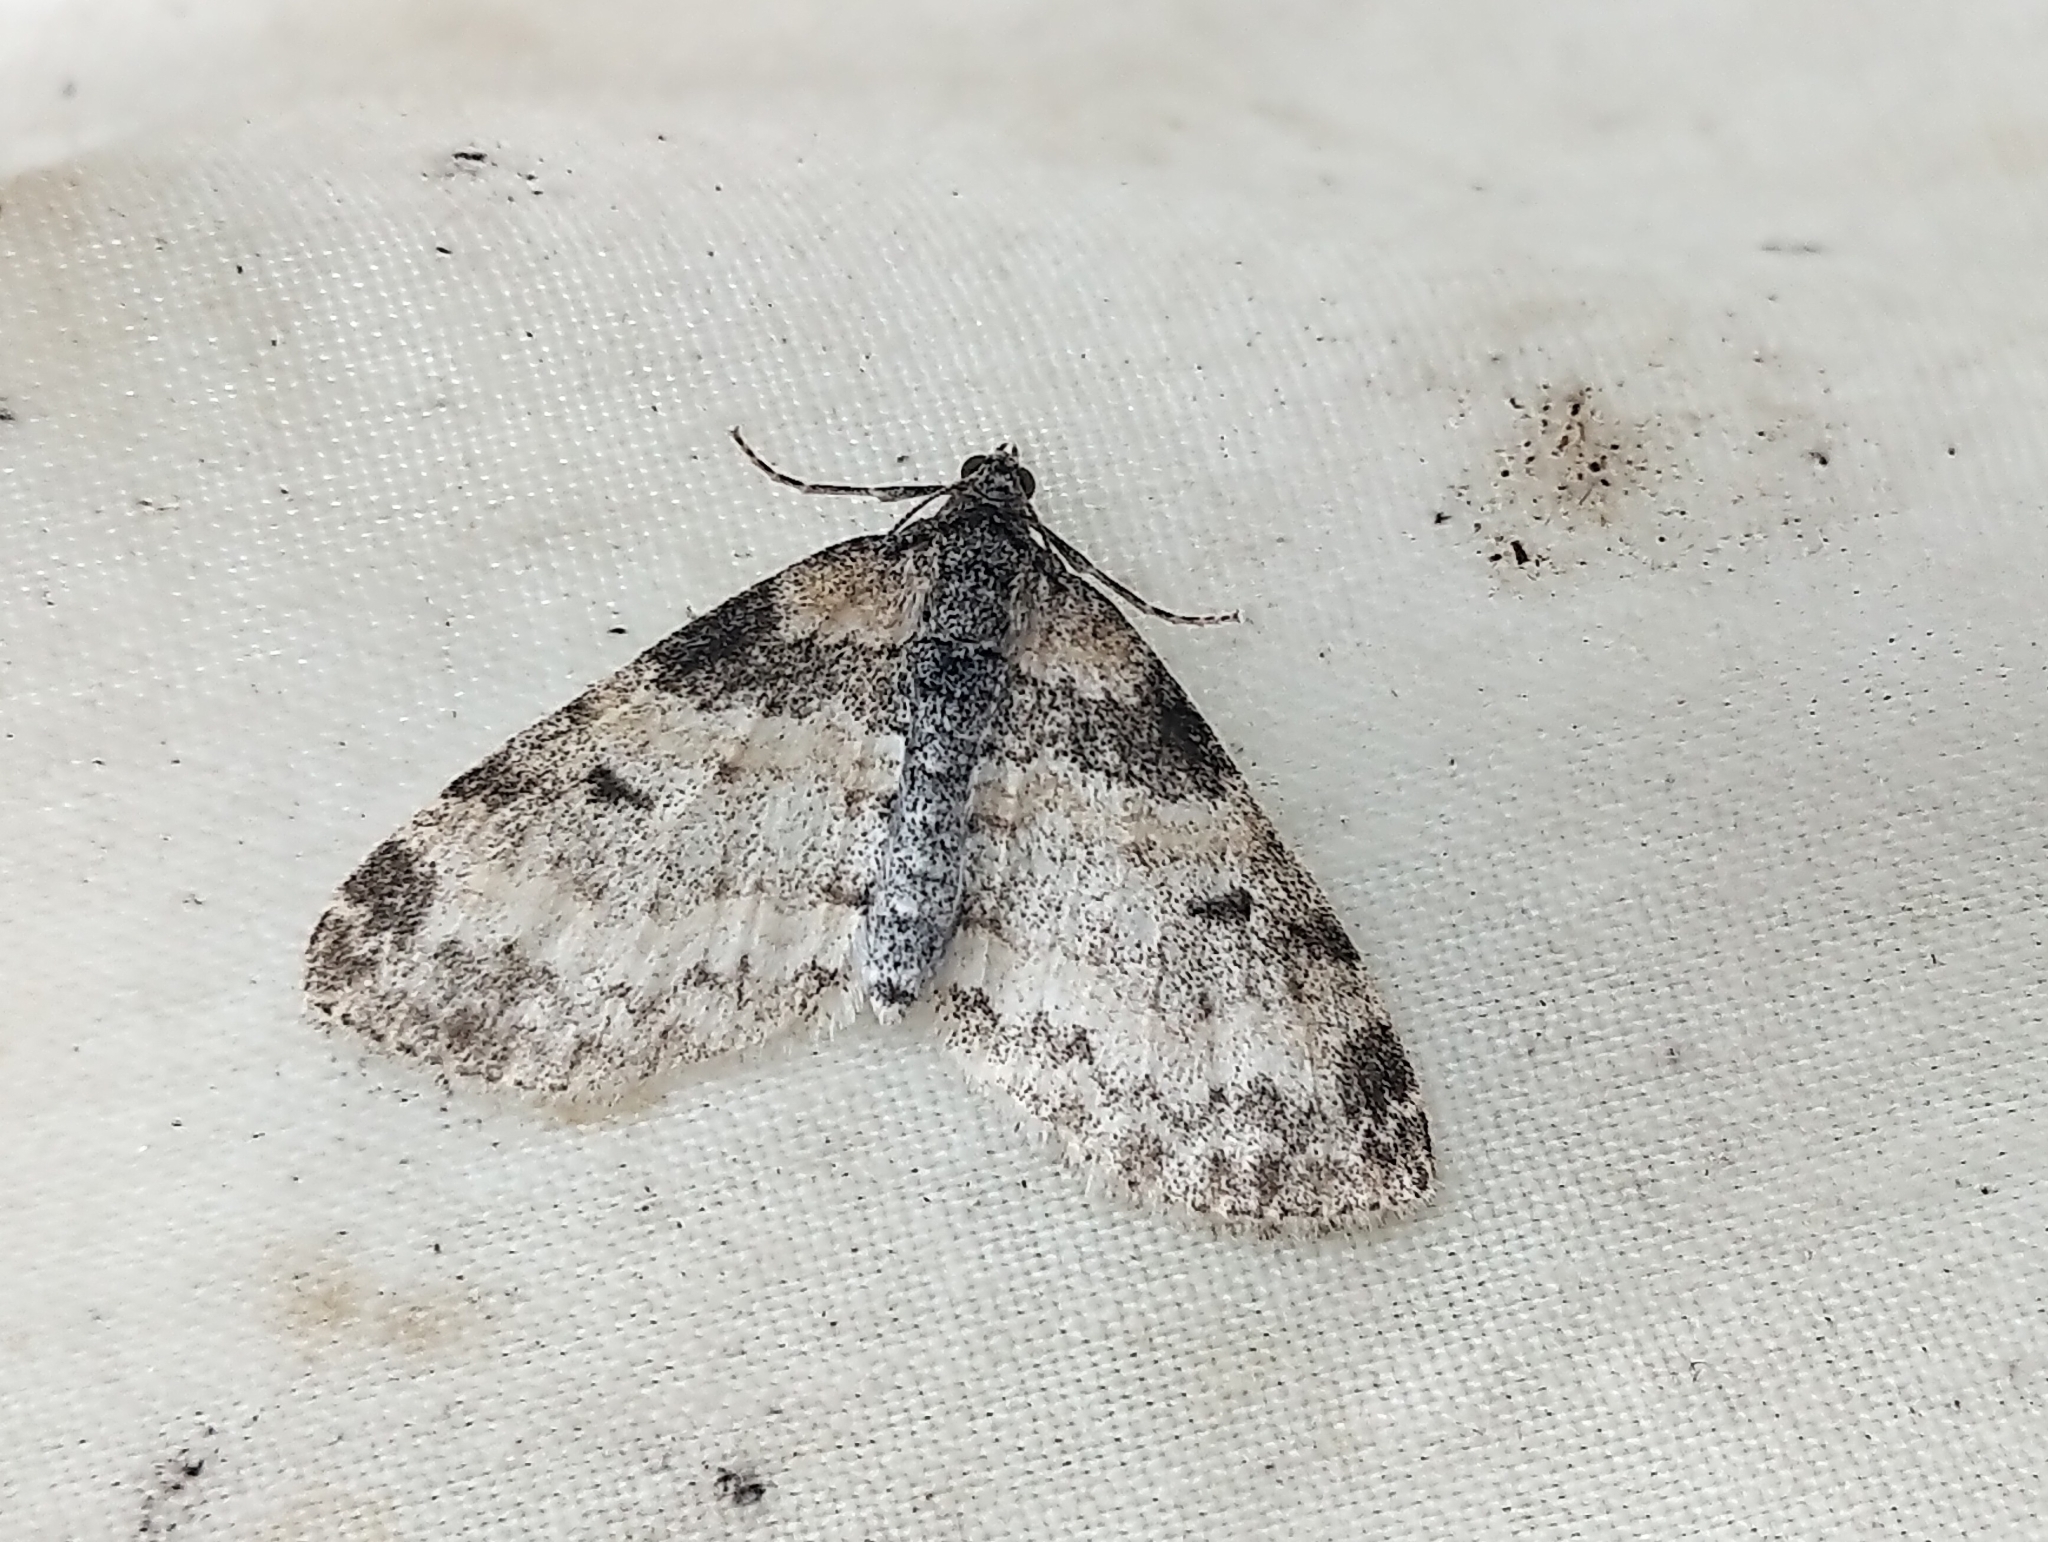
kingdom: Animalia
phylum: Arthropoda
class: Insecta
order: Lepidoptera
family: Geometridae
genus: Lobophora
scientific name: Lobophora nivigerata
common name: Powdered bigwing
